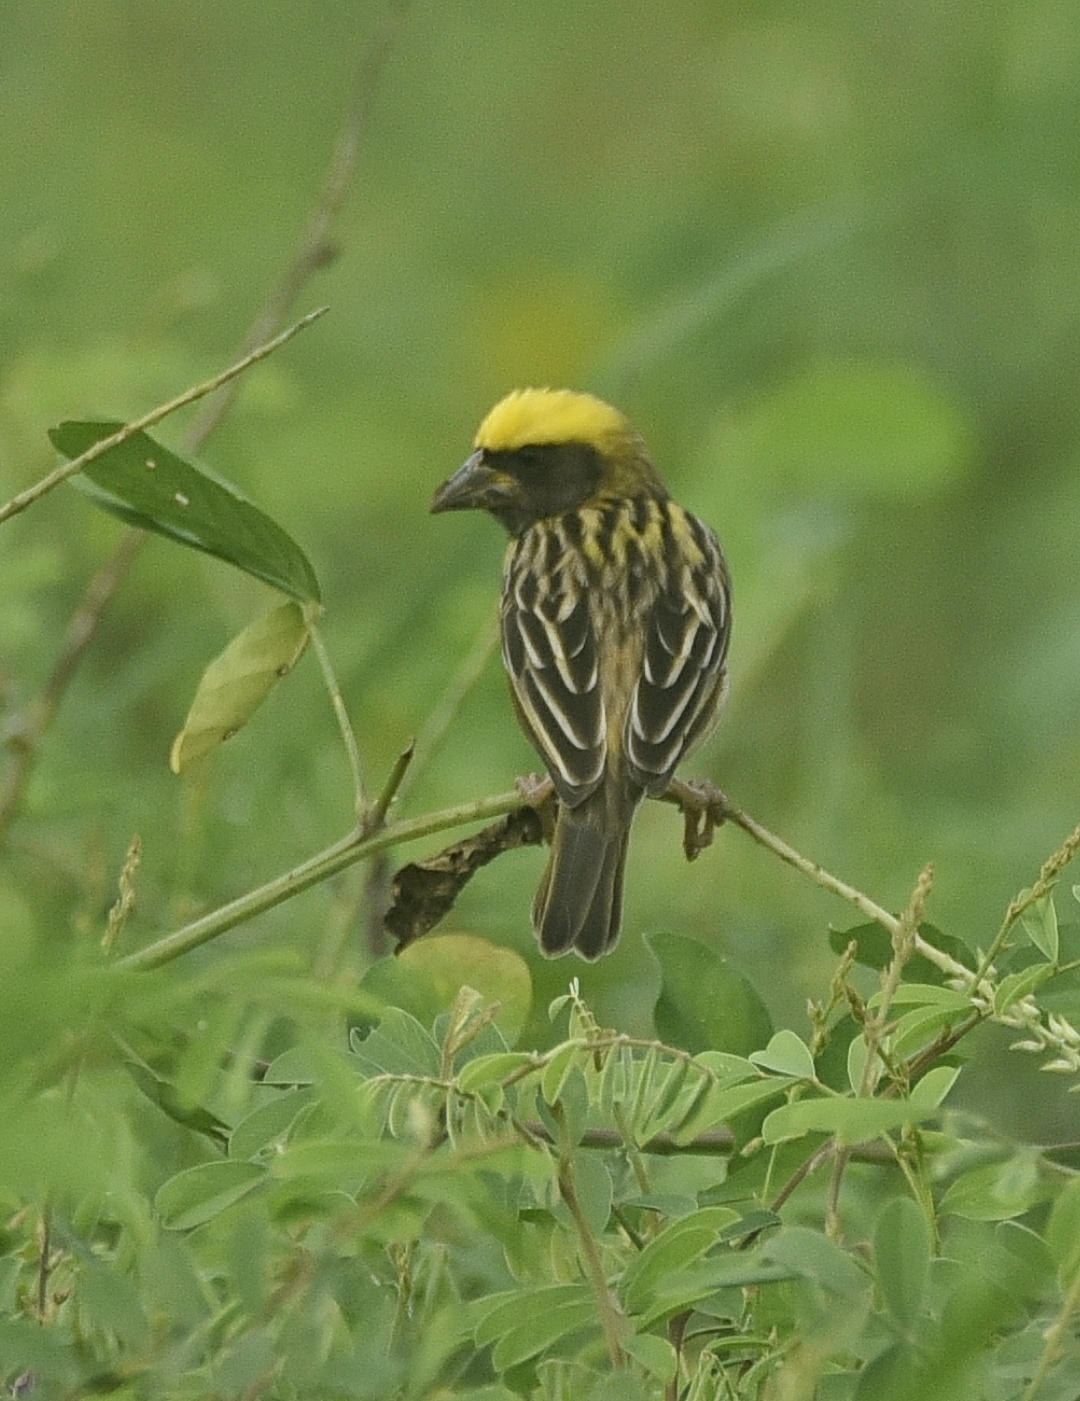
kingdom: Animalia
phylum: Chordata
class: Aves
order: Passeriformes
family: Ploceidae
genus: Ploceus
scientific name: Ploceus philippinus
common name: Baya weaver
